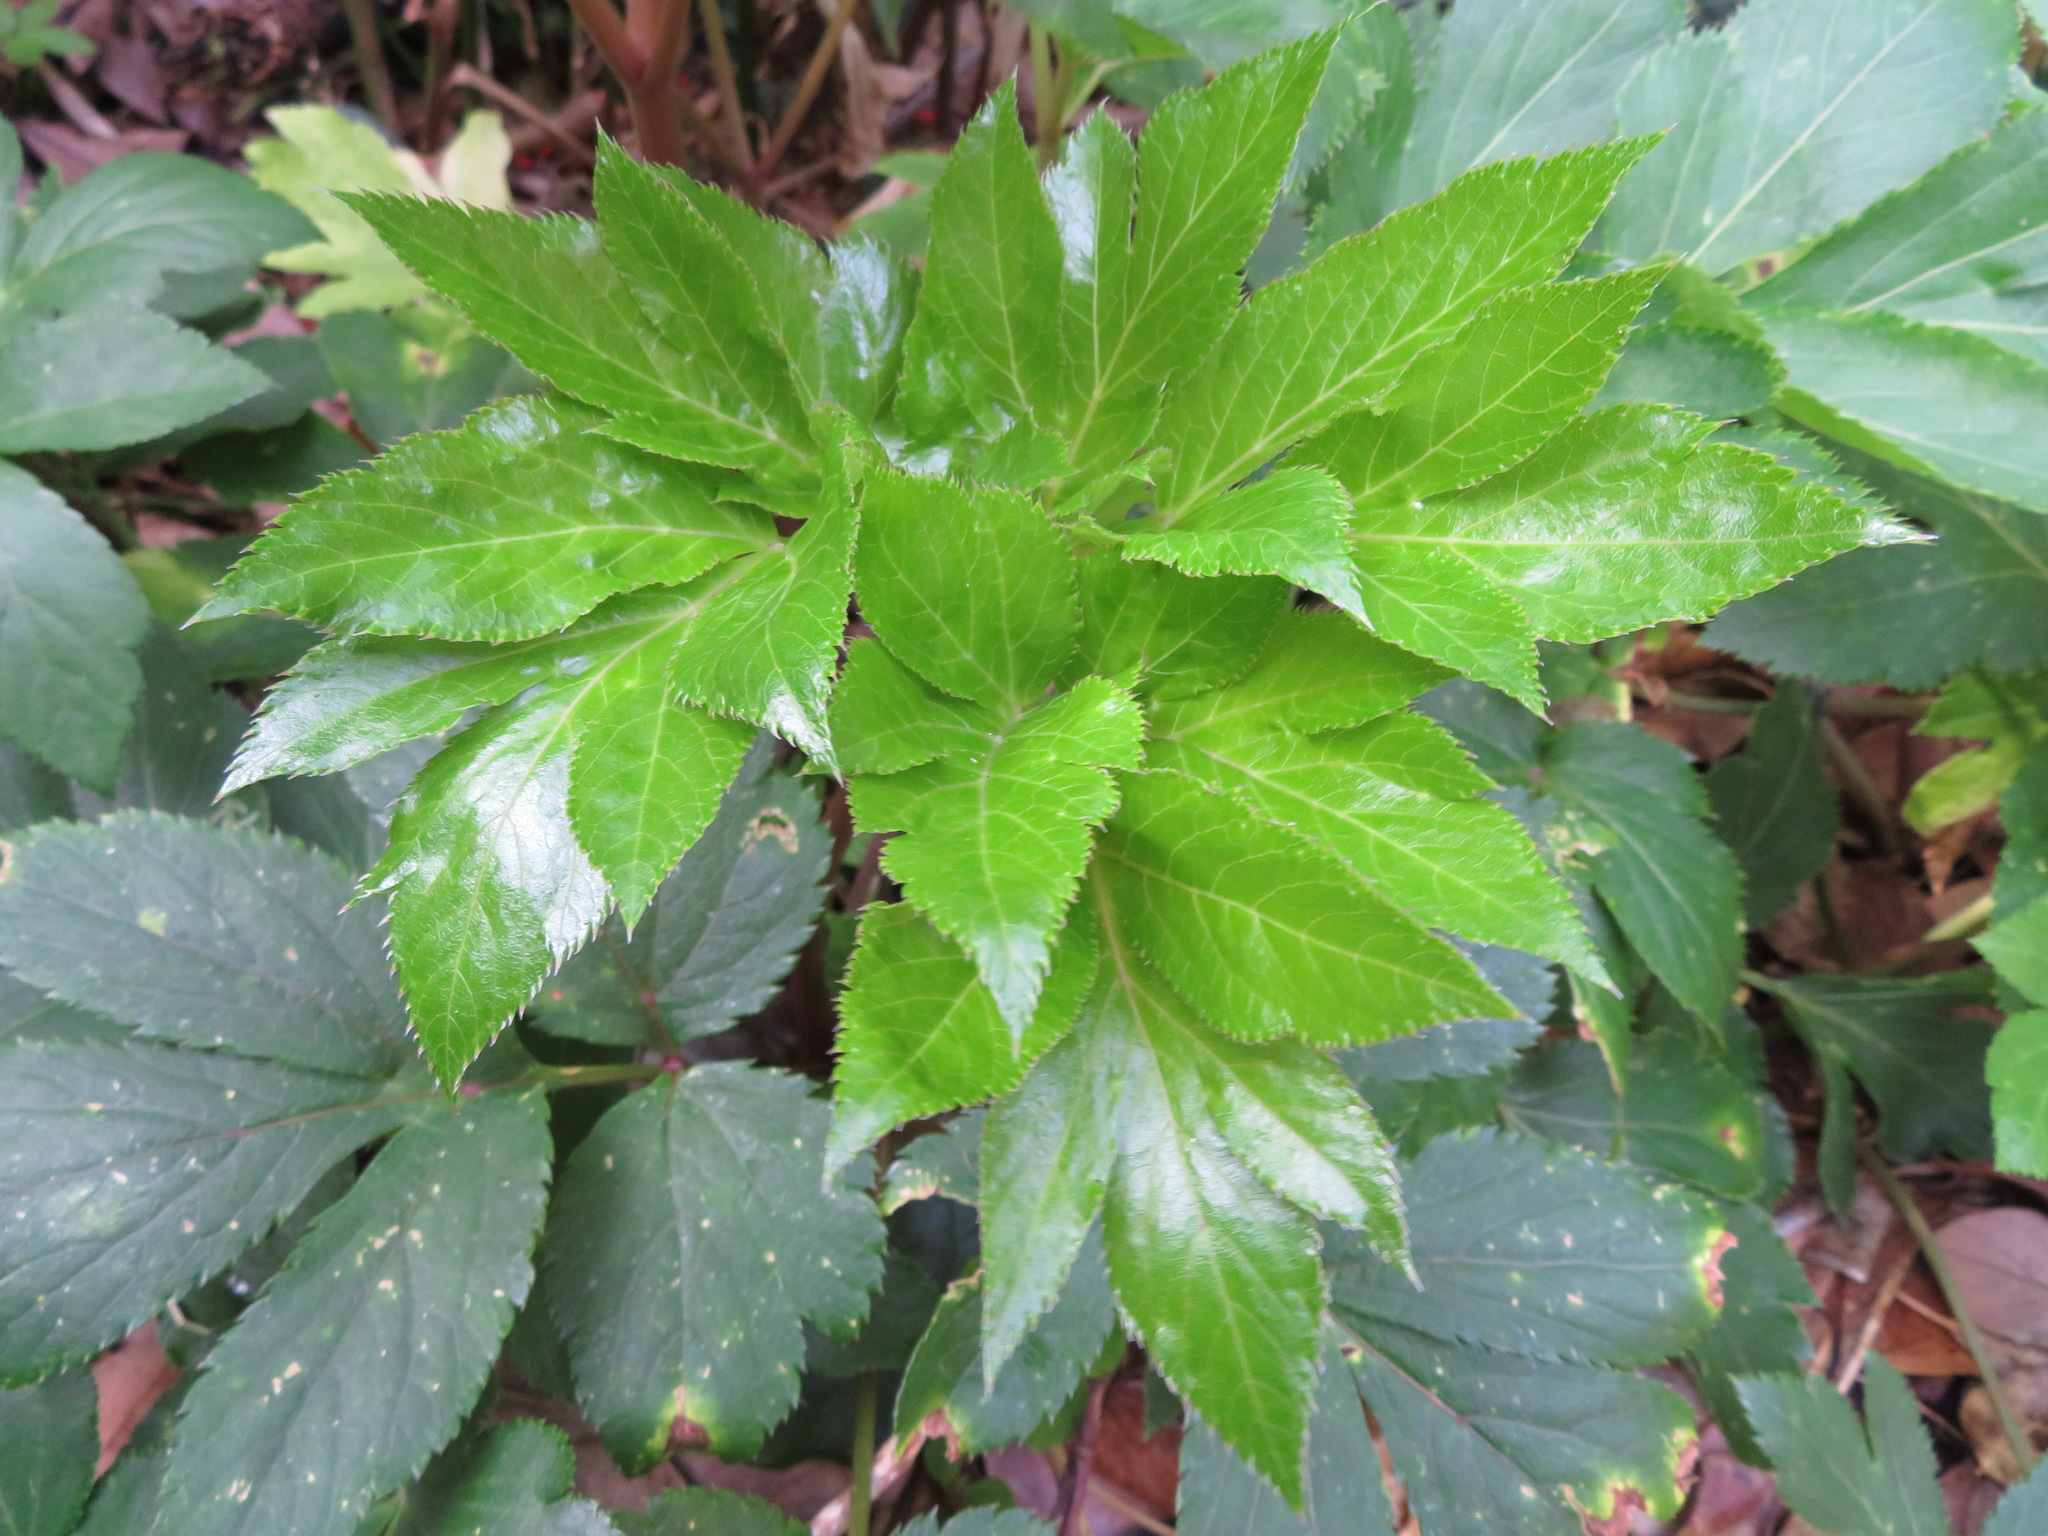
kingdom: Plantae
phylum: Tracheophyta
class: Magnoliopsida
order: Apiales
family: Apiaceae
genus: Angelica
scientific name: Angelica keiskei
